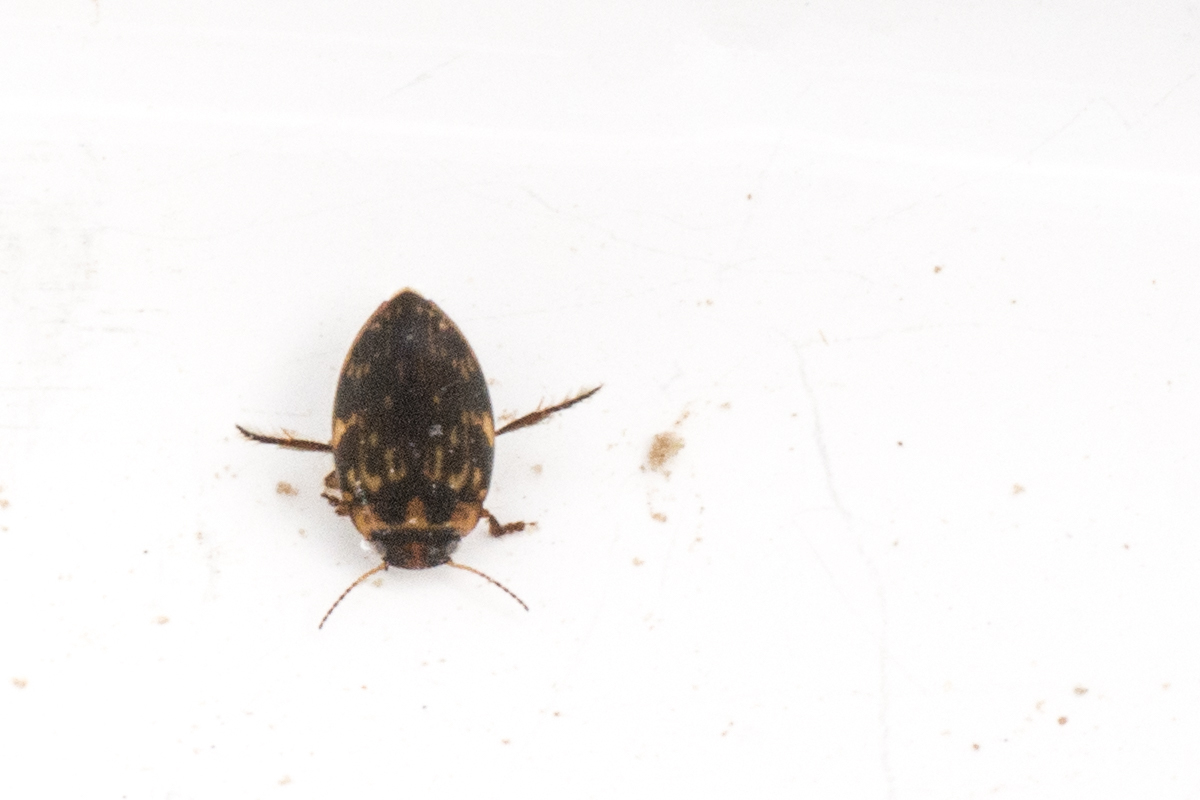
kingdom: Animalia
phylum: Arthropoda
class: Insecta
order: Coleoptera
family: Dytiscidae
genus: Nectoboreus
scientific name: Nectoboreus aequinoctialis
